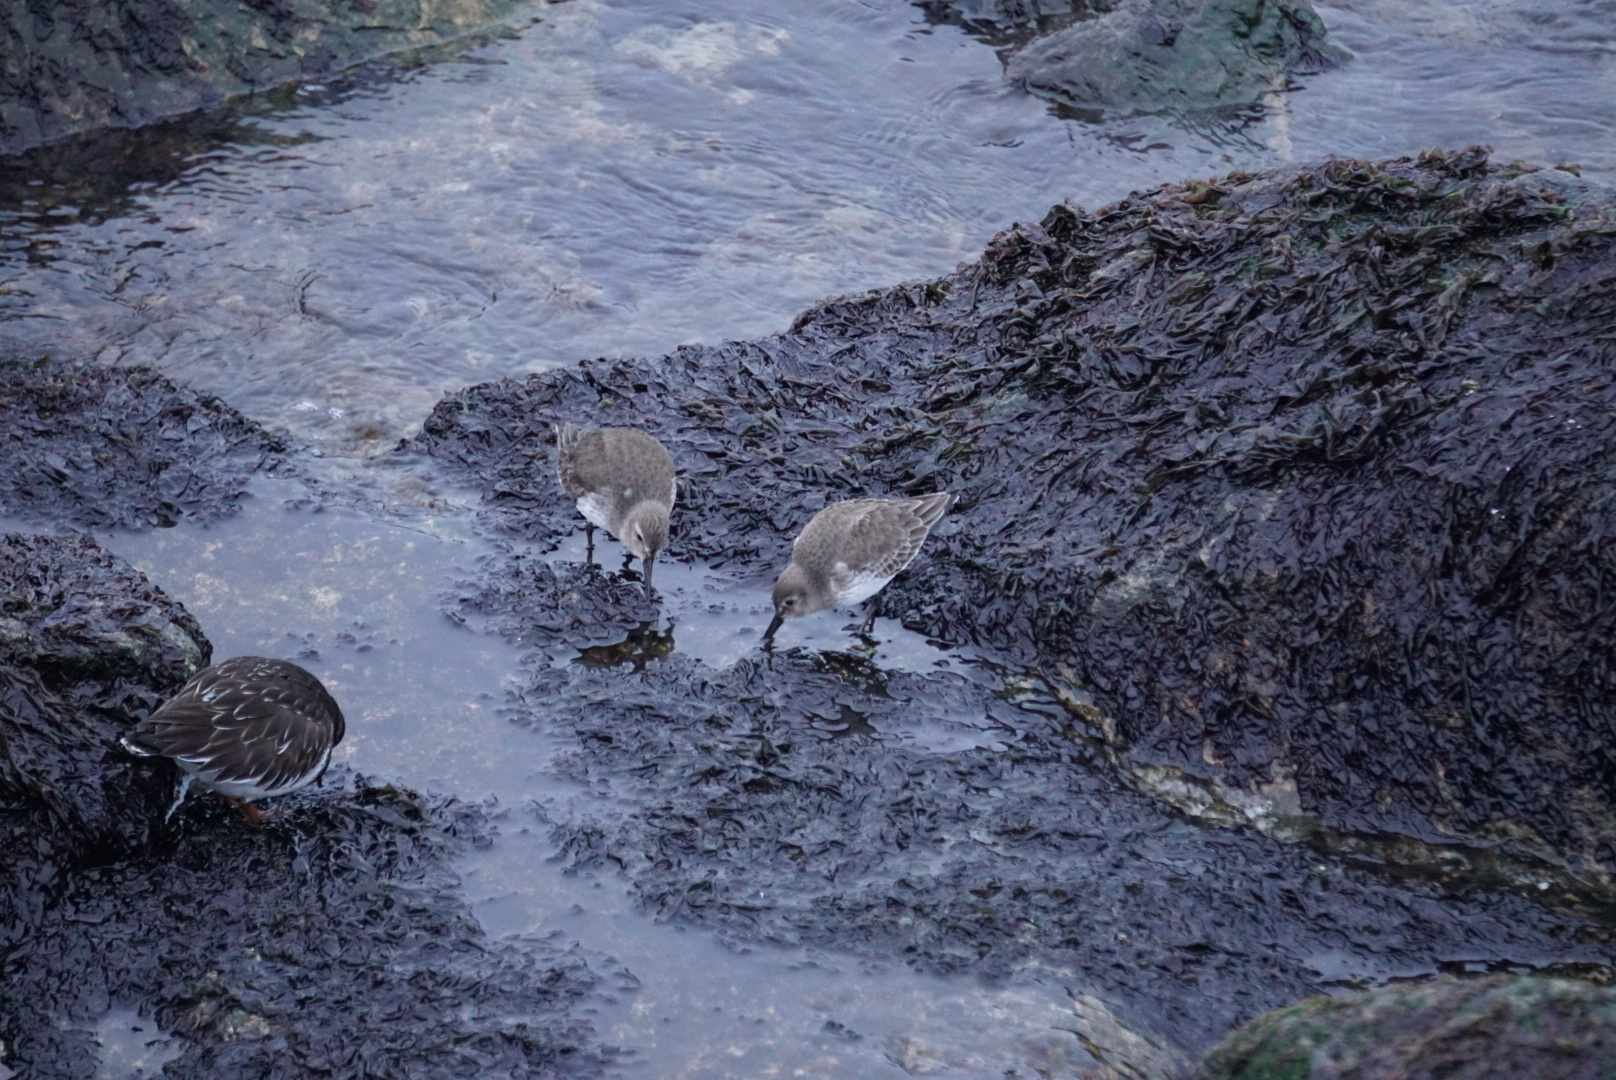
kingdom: Animalia
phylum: Chordata
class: Aves
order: Charadriiformes
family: Scolopacidae
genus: Calidris
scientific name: Calidris alpina
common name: Dunlin
